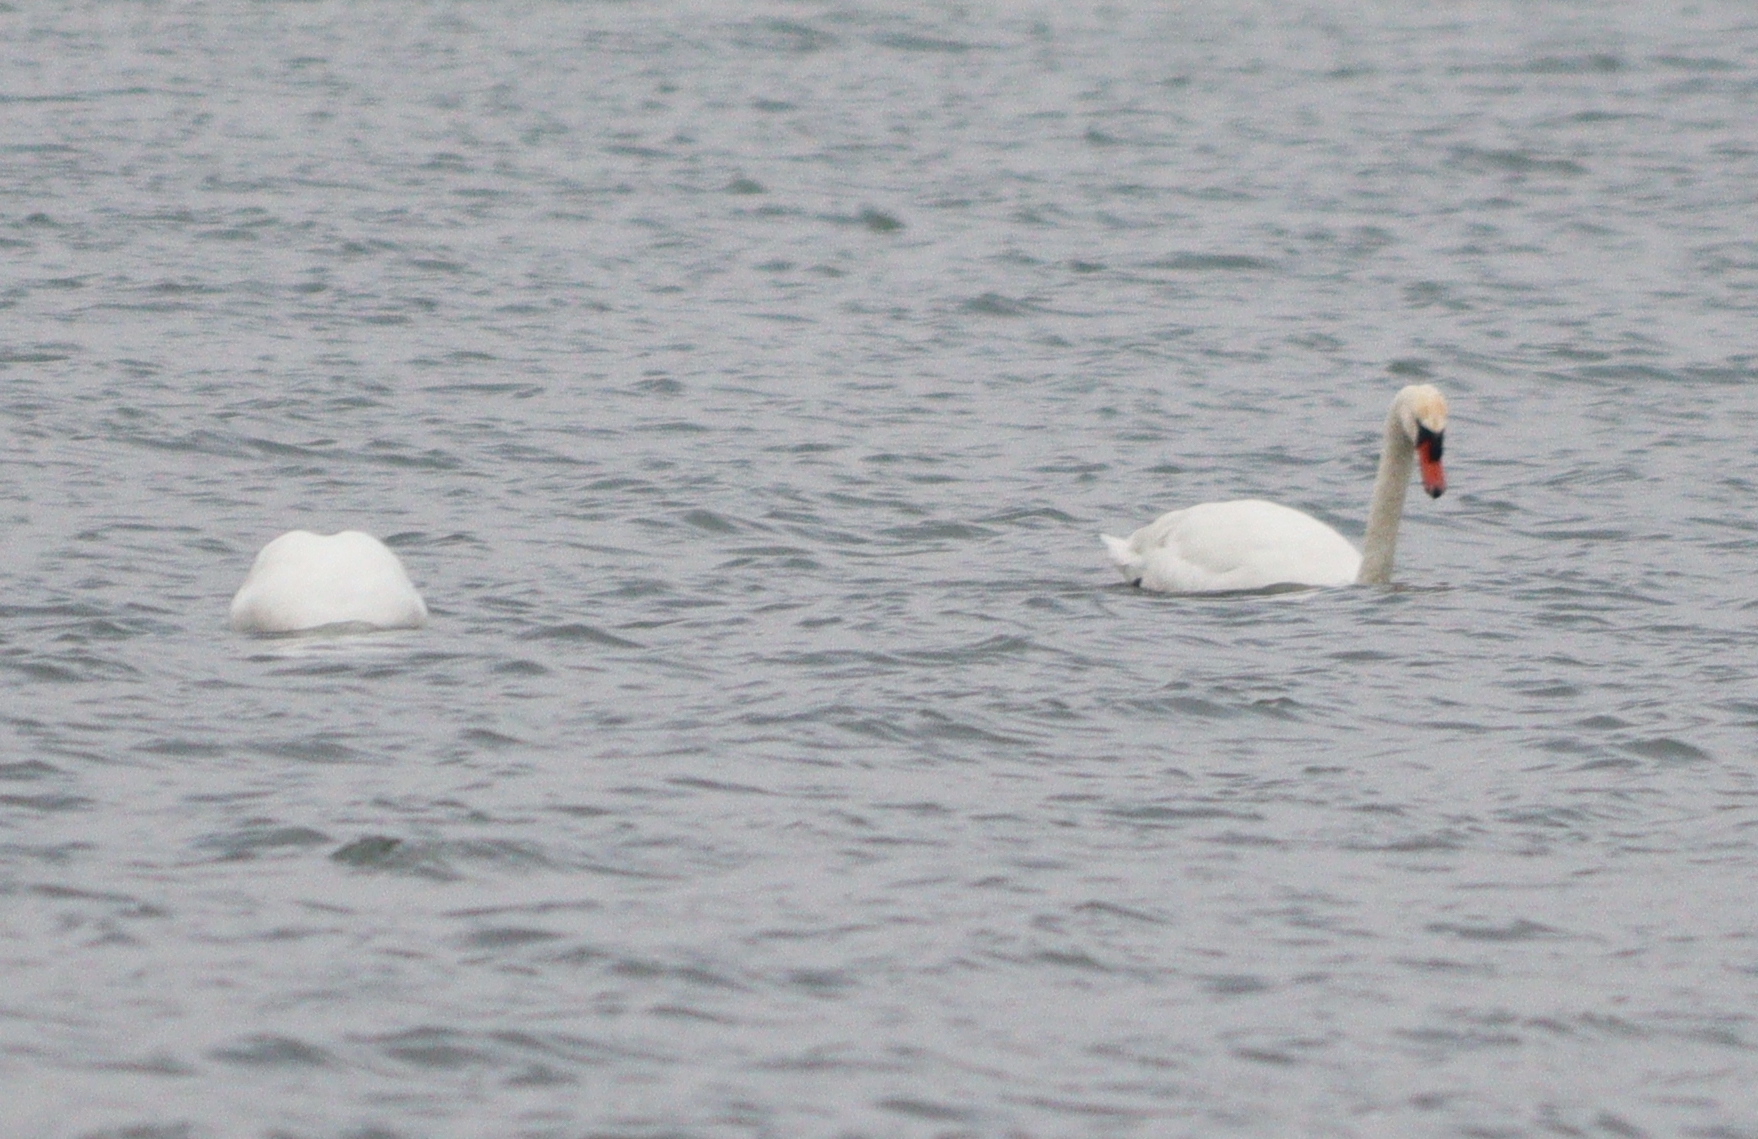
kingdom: Animalia
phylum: Chordata
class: Aves
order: Anseriformes
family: Anatidae
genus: Cygnus
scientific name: Cygnus olor
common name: Mute swan
